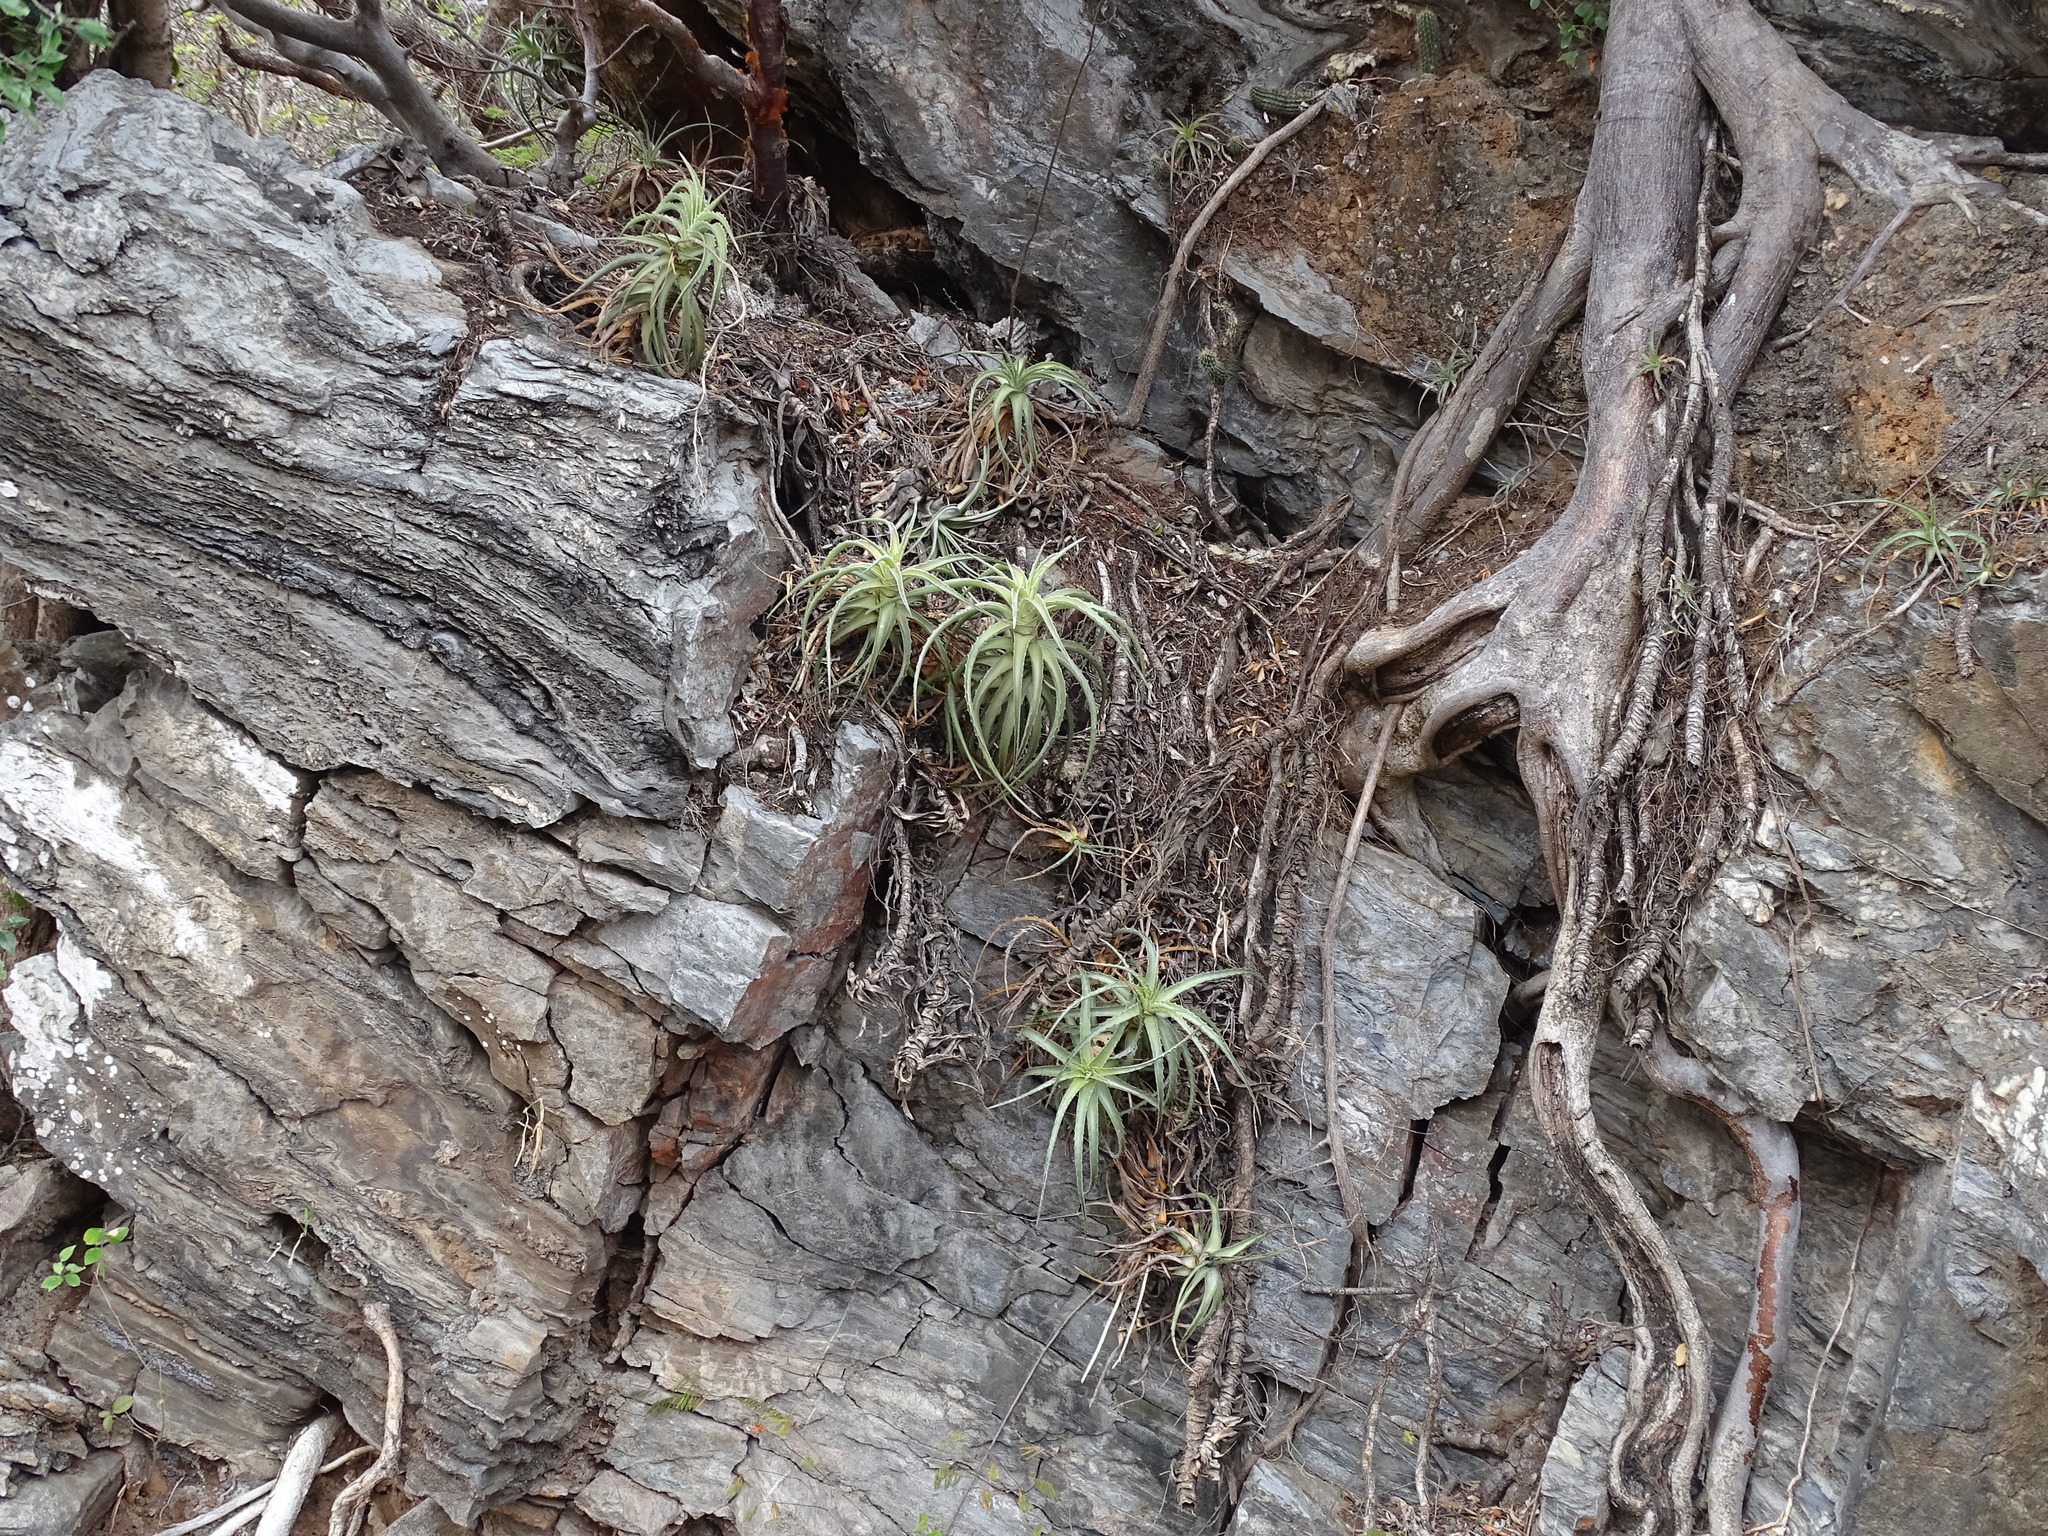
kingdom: Plantae
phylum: Tracheophyta
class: Liliopsida
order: Poales
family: Bromeliaceae
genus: Hechtia
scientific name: Hechtia isthmusiana
